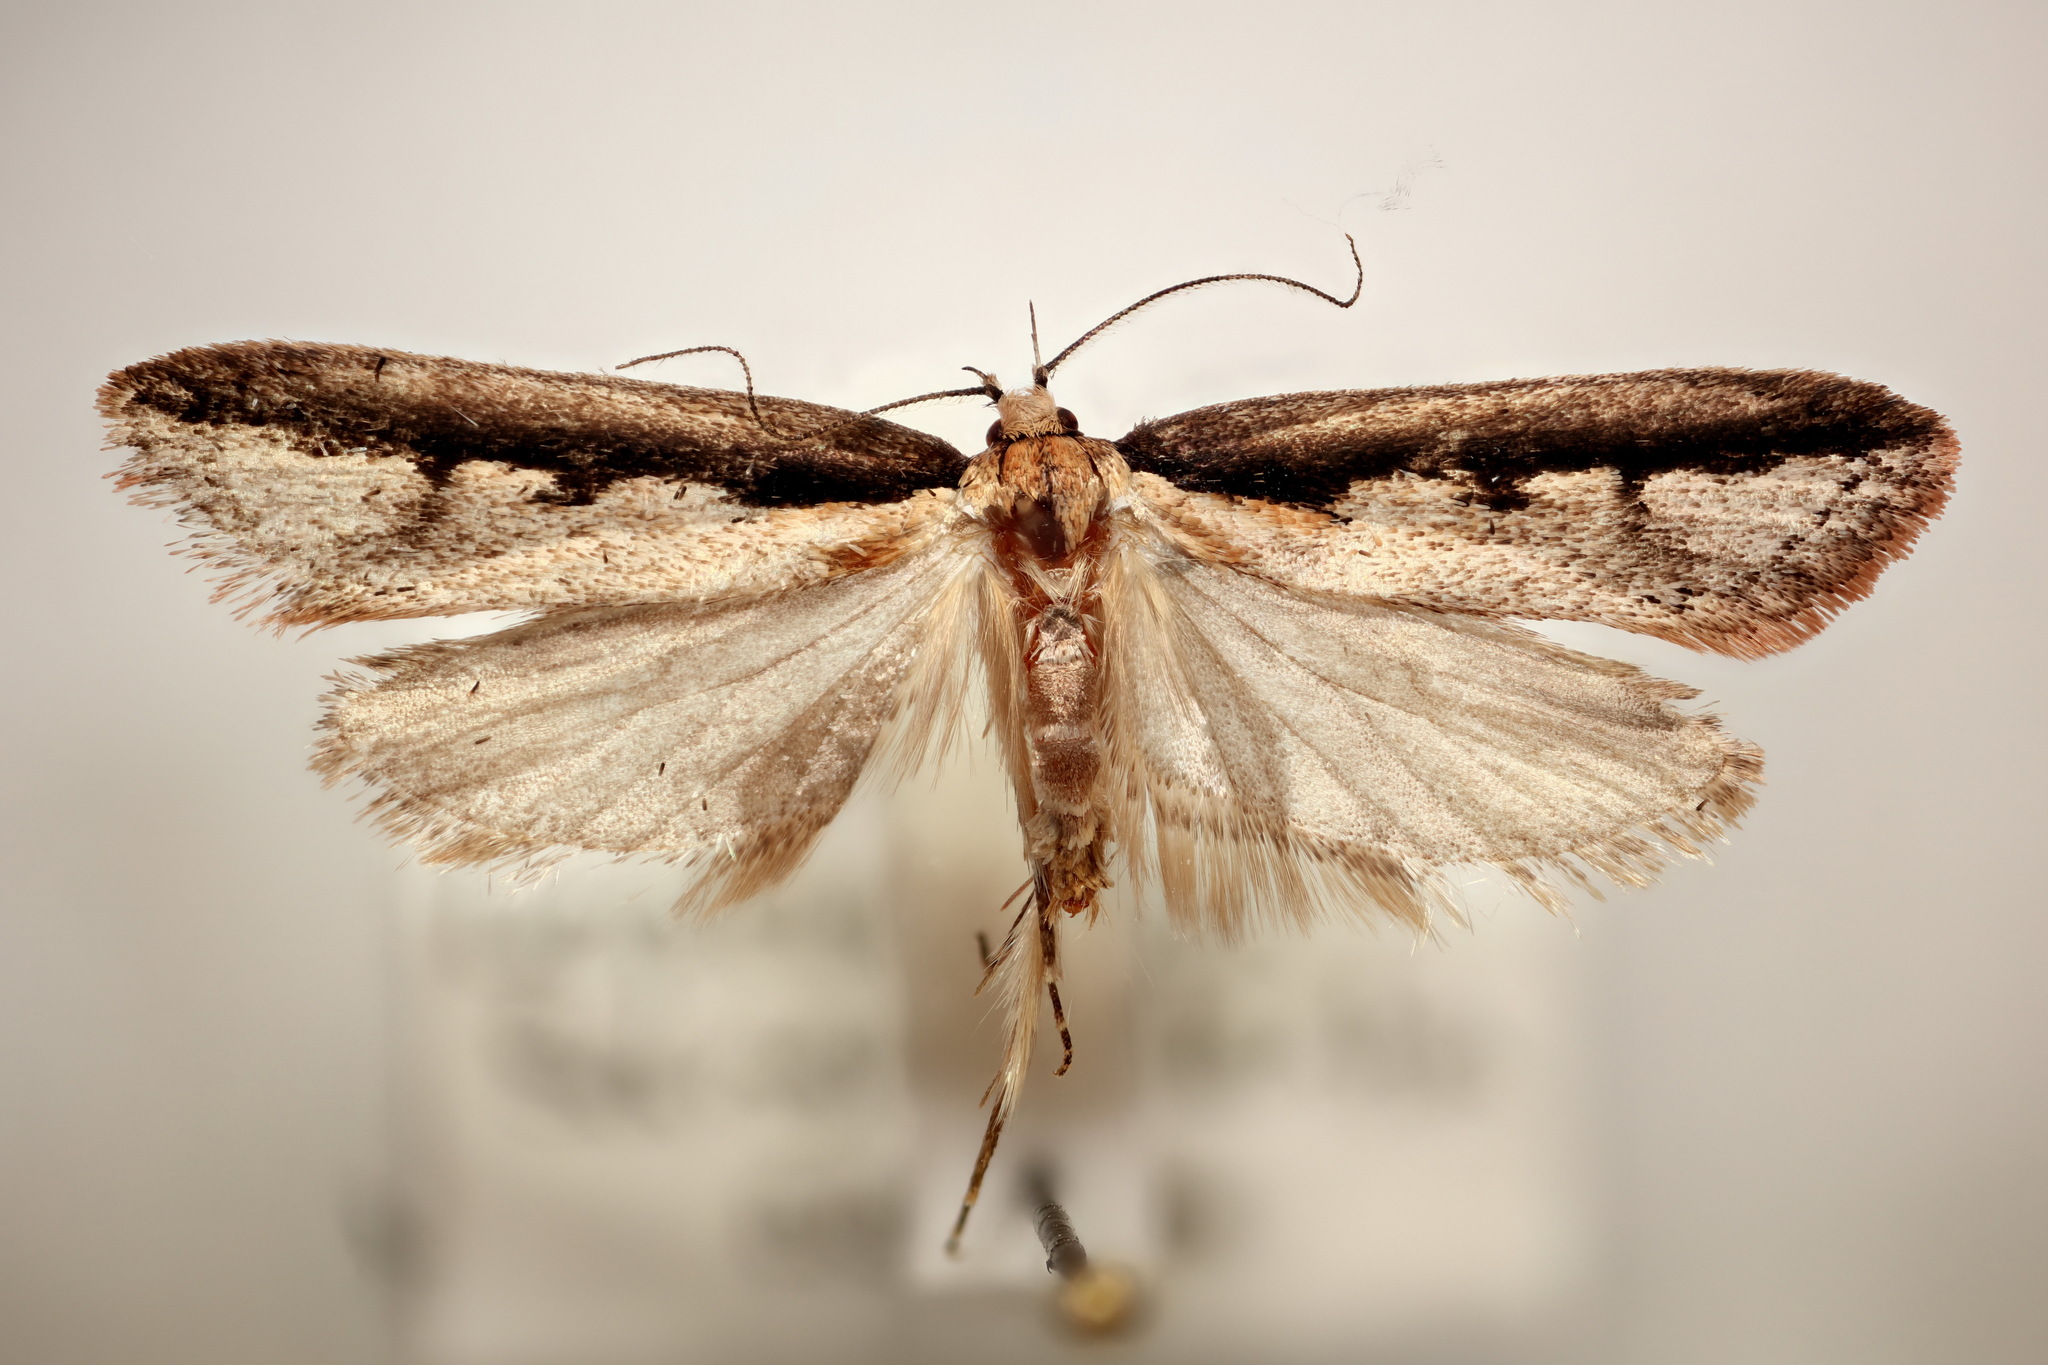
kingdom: Animalia
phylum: Arthropoda
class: Insecta
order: Lepidoptera
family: Oecophoridae
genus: Leptocroca
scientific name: Leptocroca sanguinolenta
